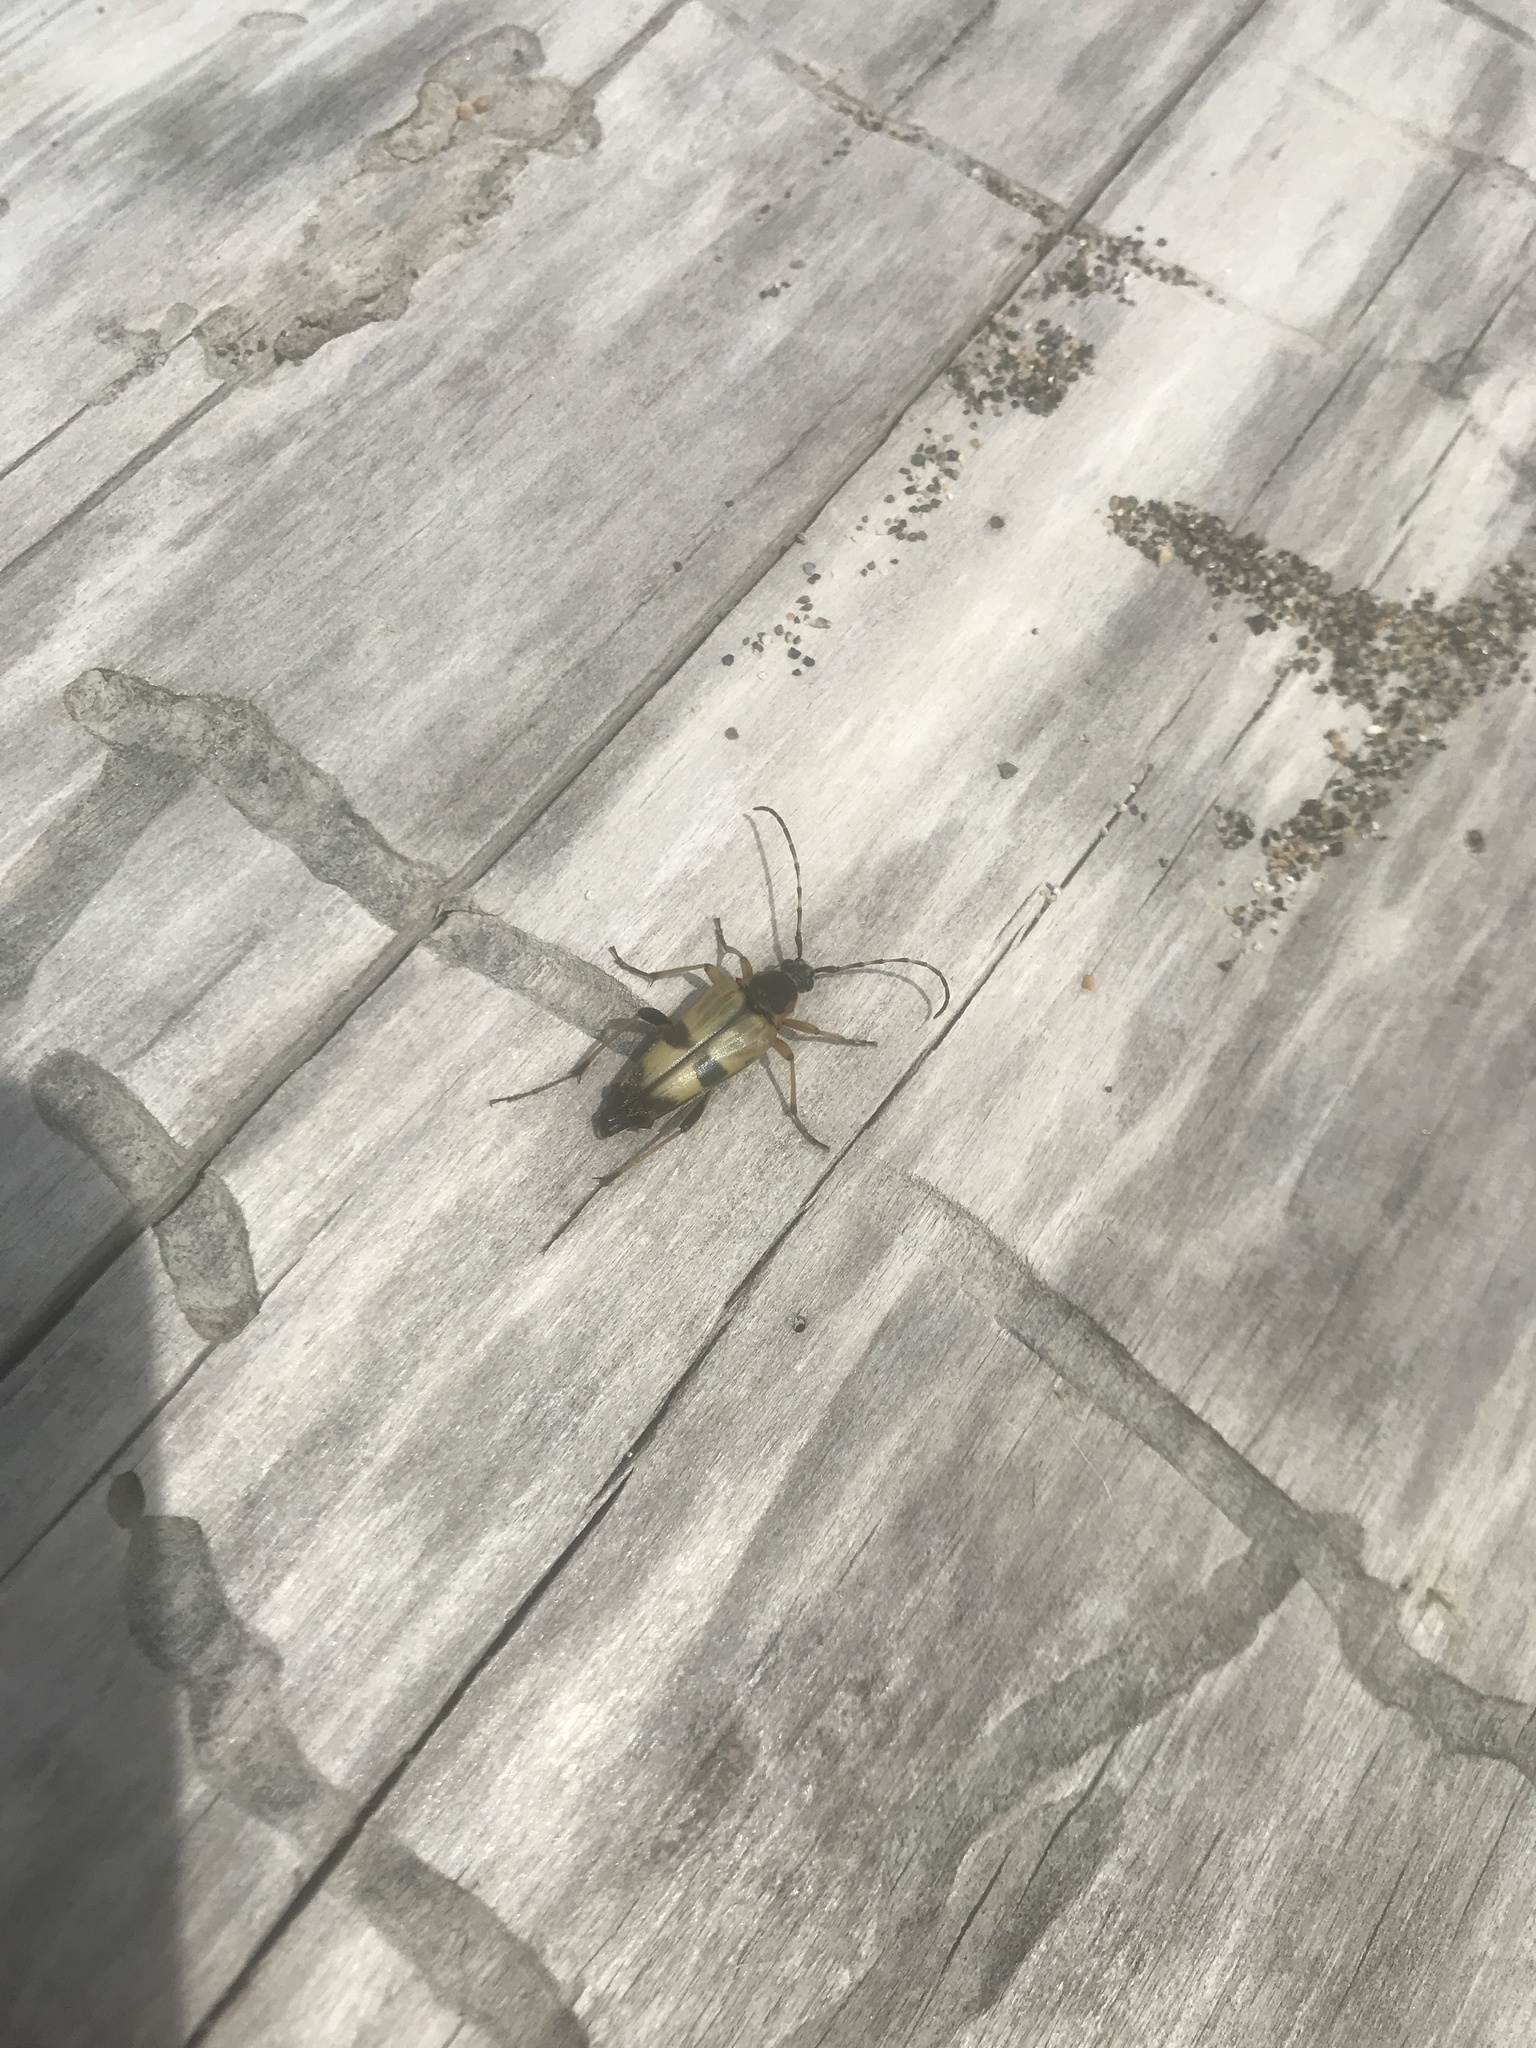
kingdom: Animalia
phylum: Arthropoda
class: Insecta
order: Coleoptera
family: Cerambycidae
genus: Etorofus
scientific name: Etorofus obliteratus
